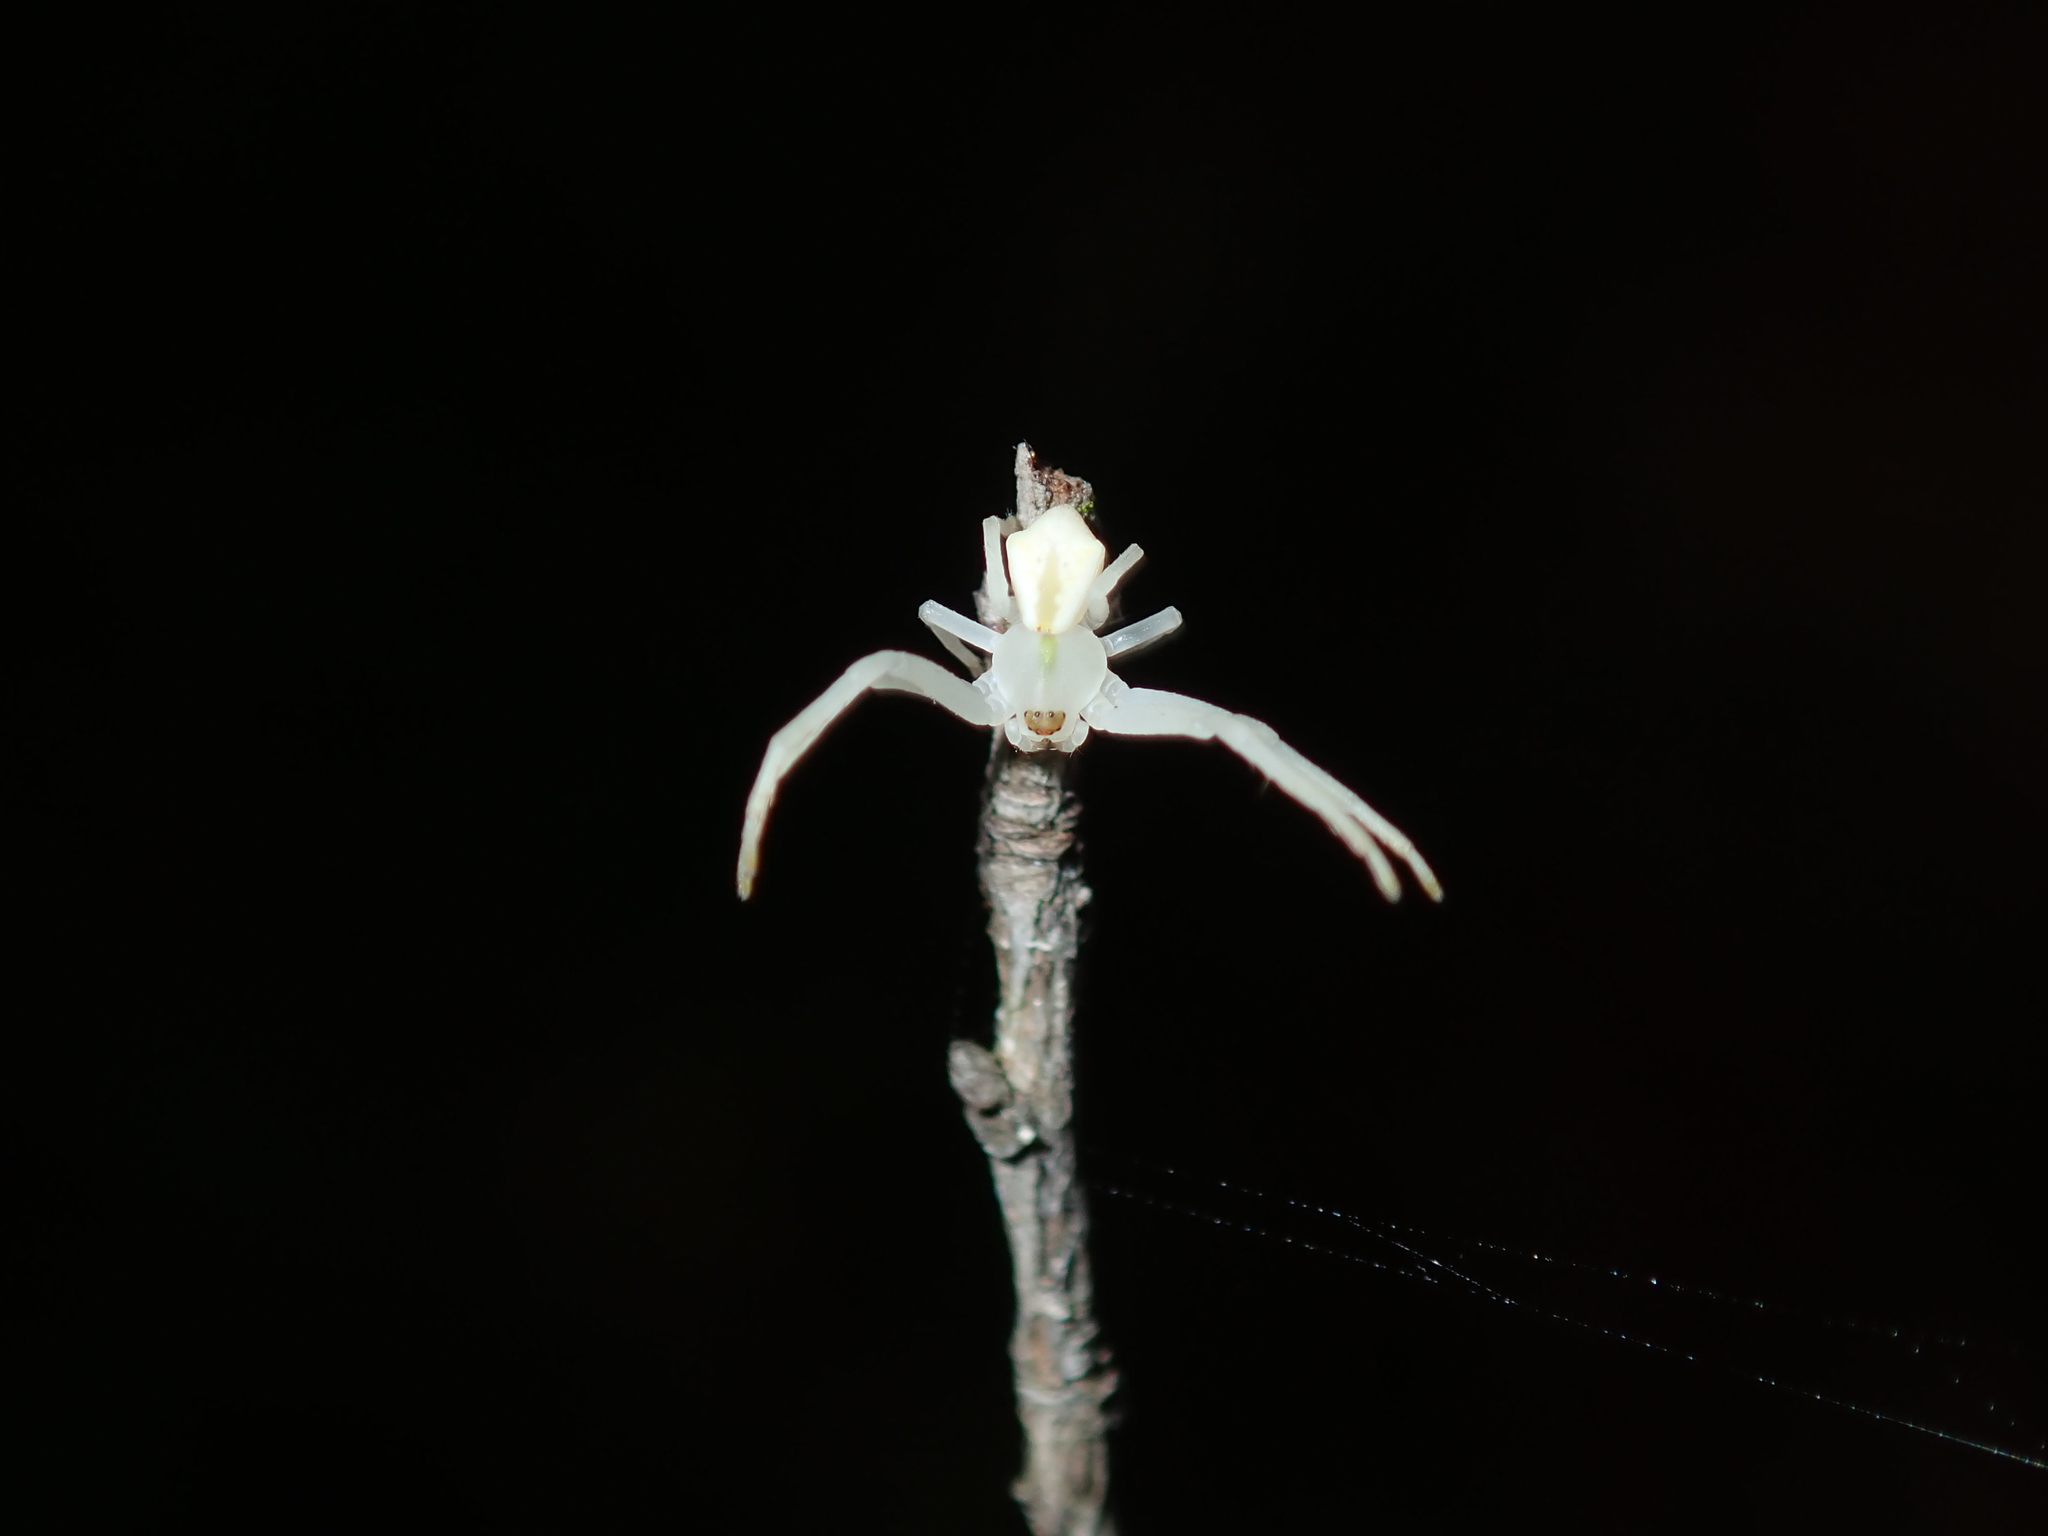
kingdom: Animalia
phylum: Arthropoda
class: Arachnida
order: Araneae
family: Thomisidae
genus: Sidymella
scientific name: Sidymella rubrosignata
